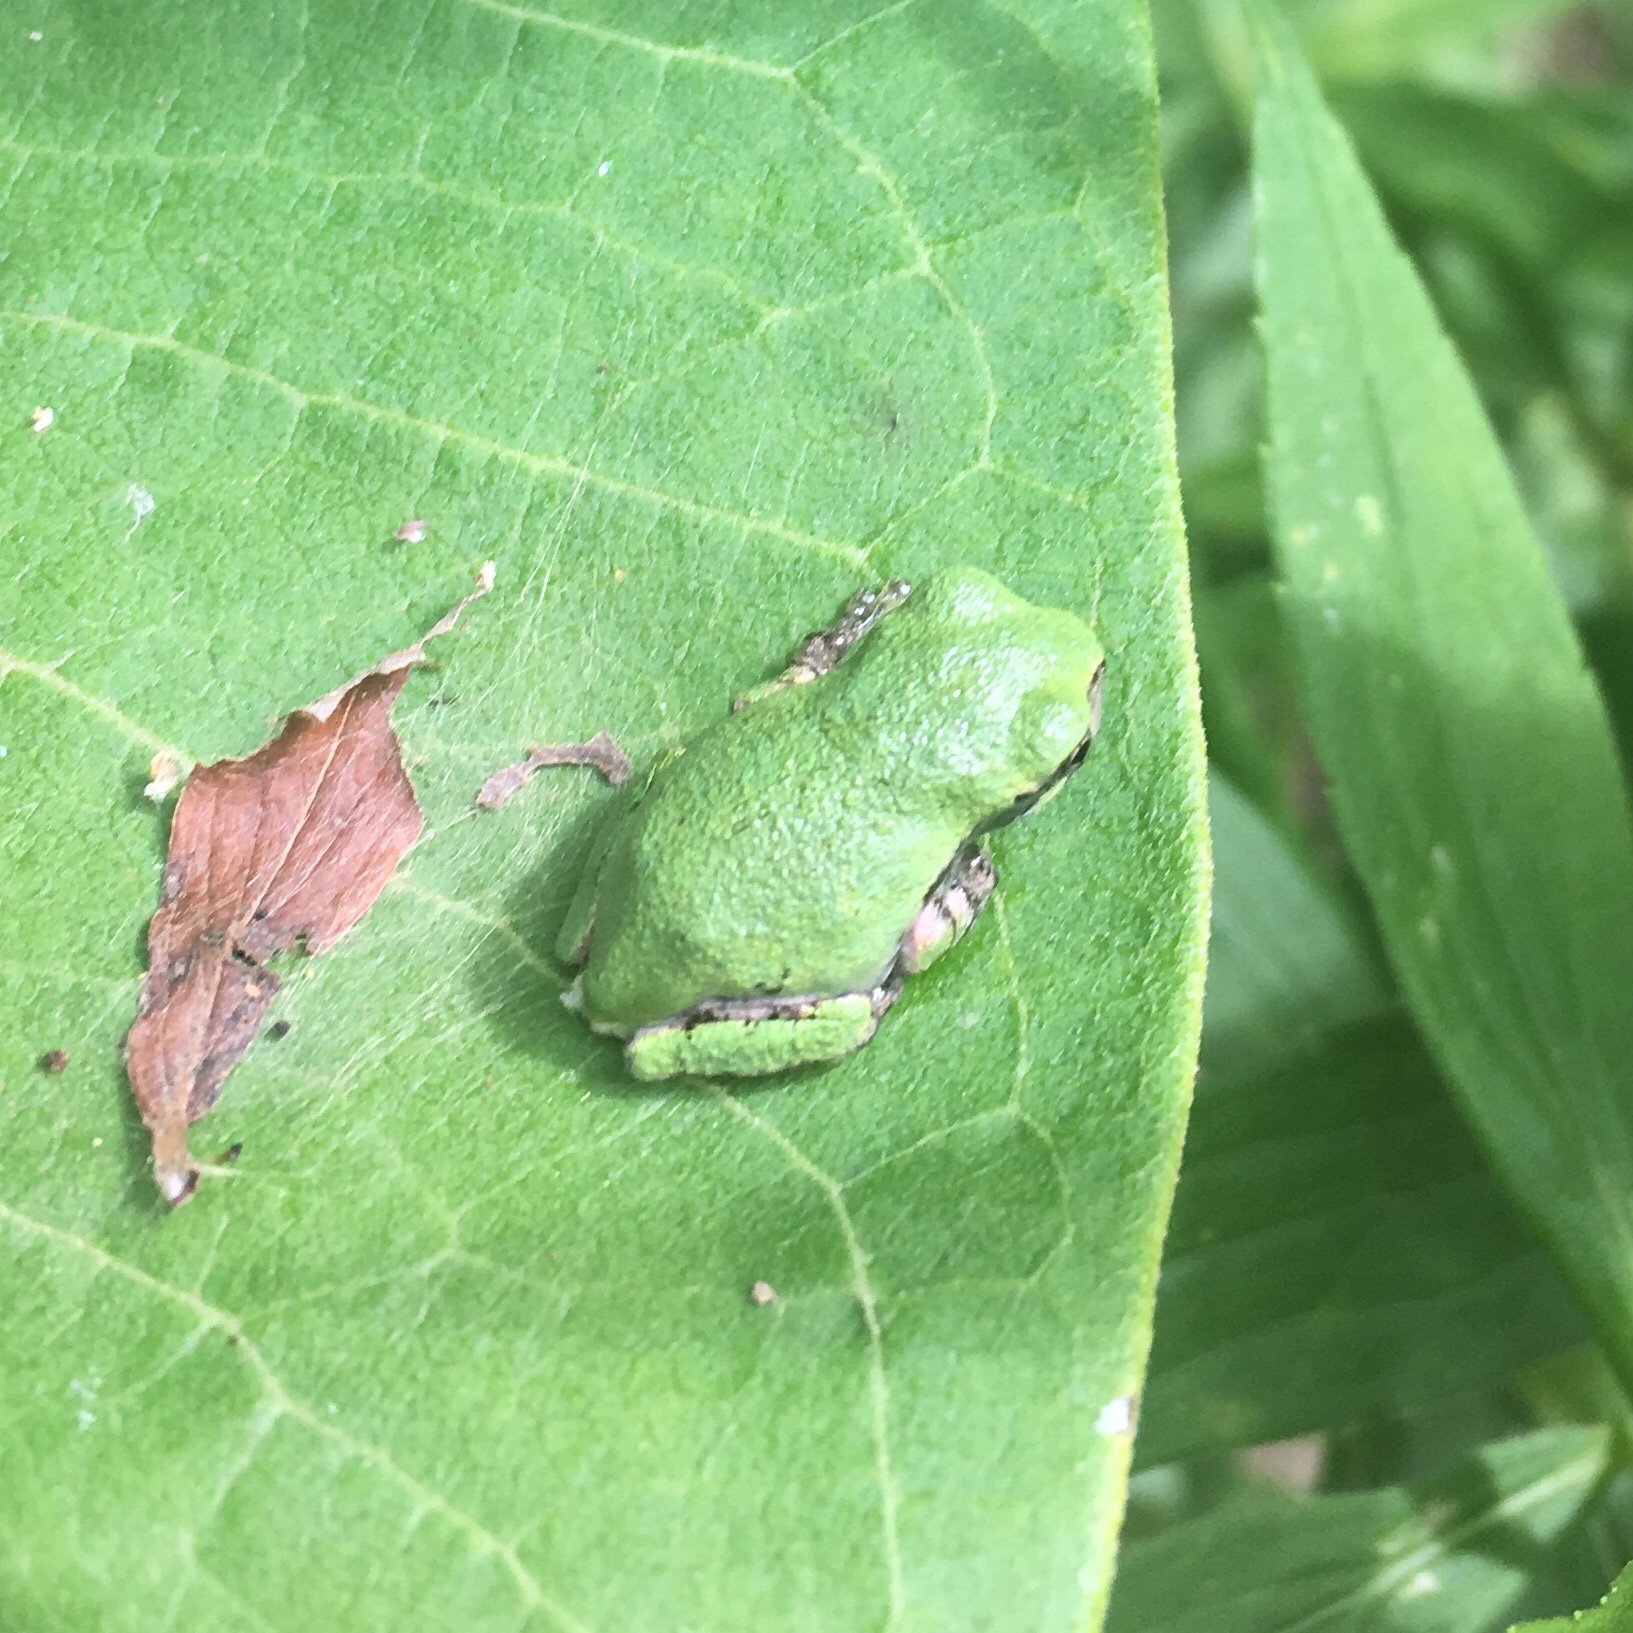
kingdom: Animalia
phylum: Chordata
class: Amphibia
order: Anura
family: Hylidae
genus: Dryophytes
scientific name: Dryophytes versicolor
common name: Gray treefrog
